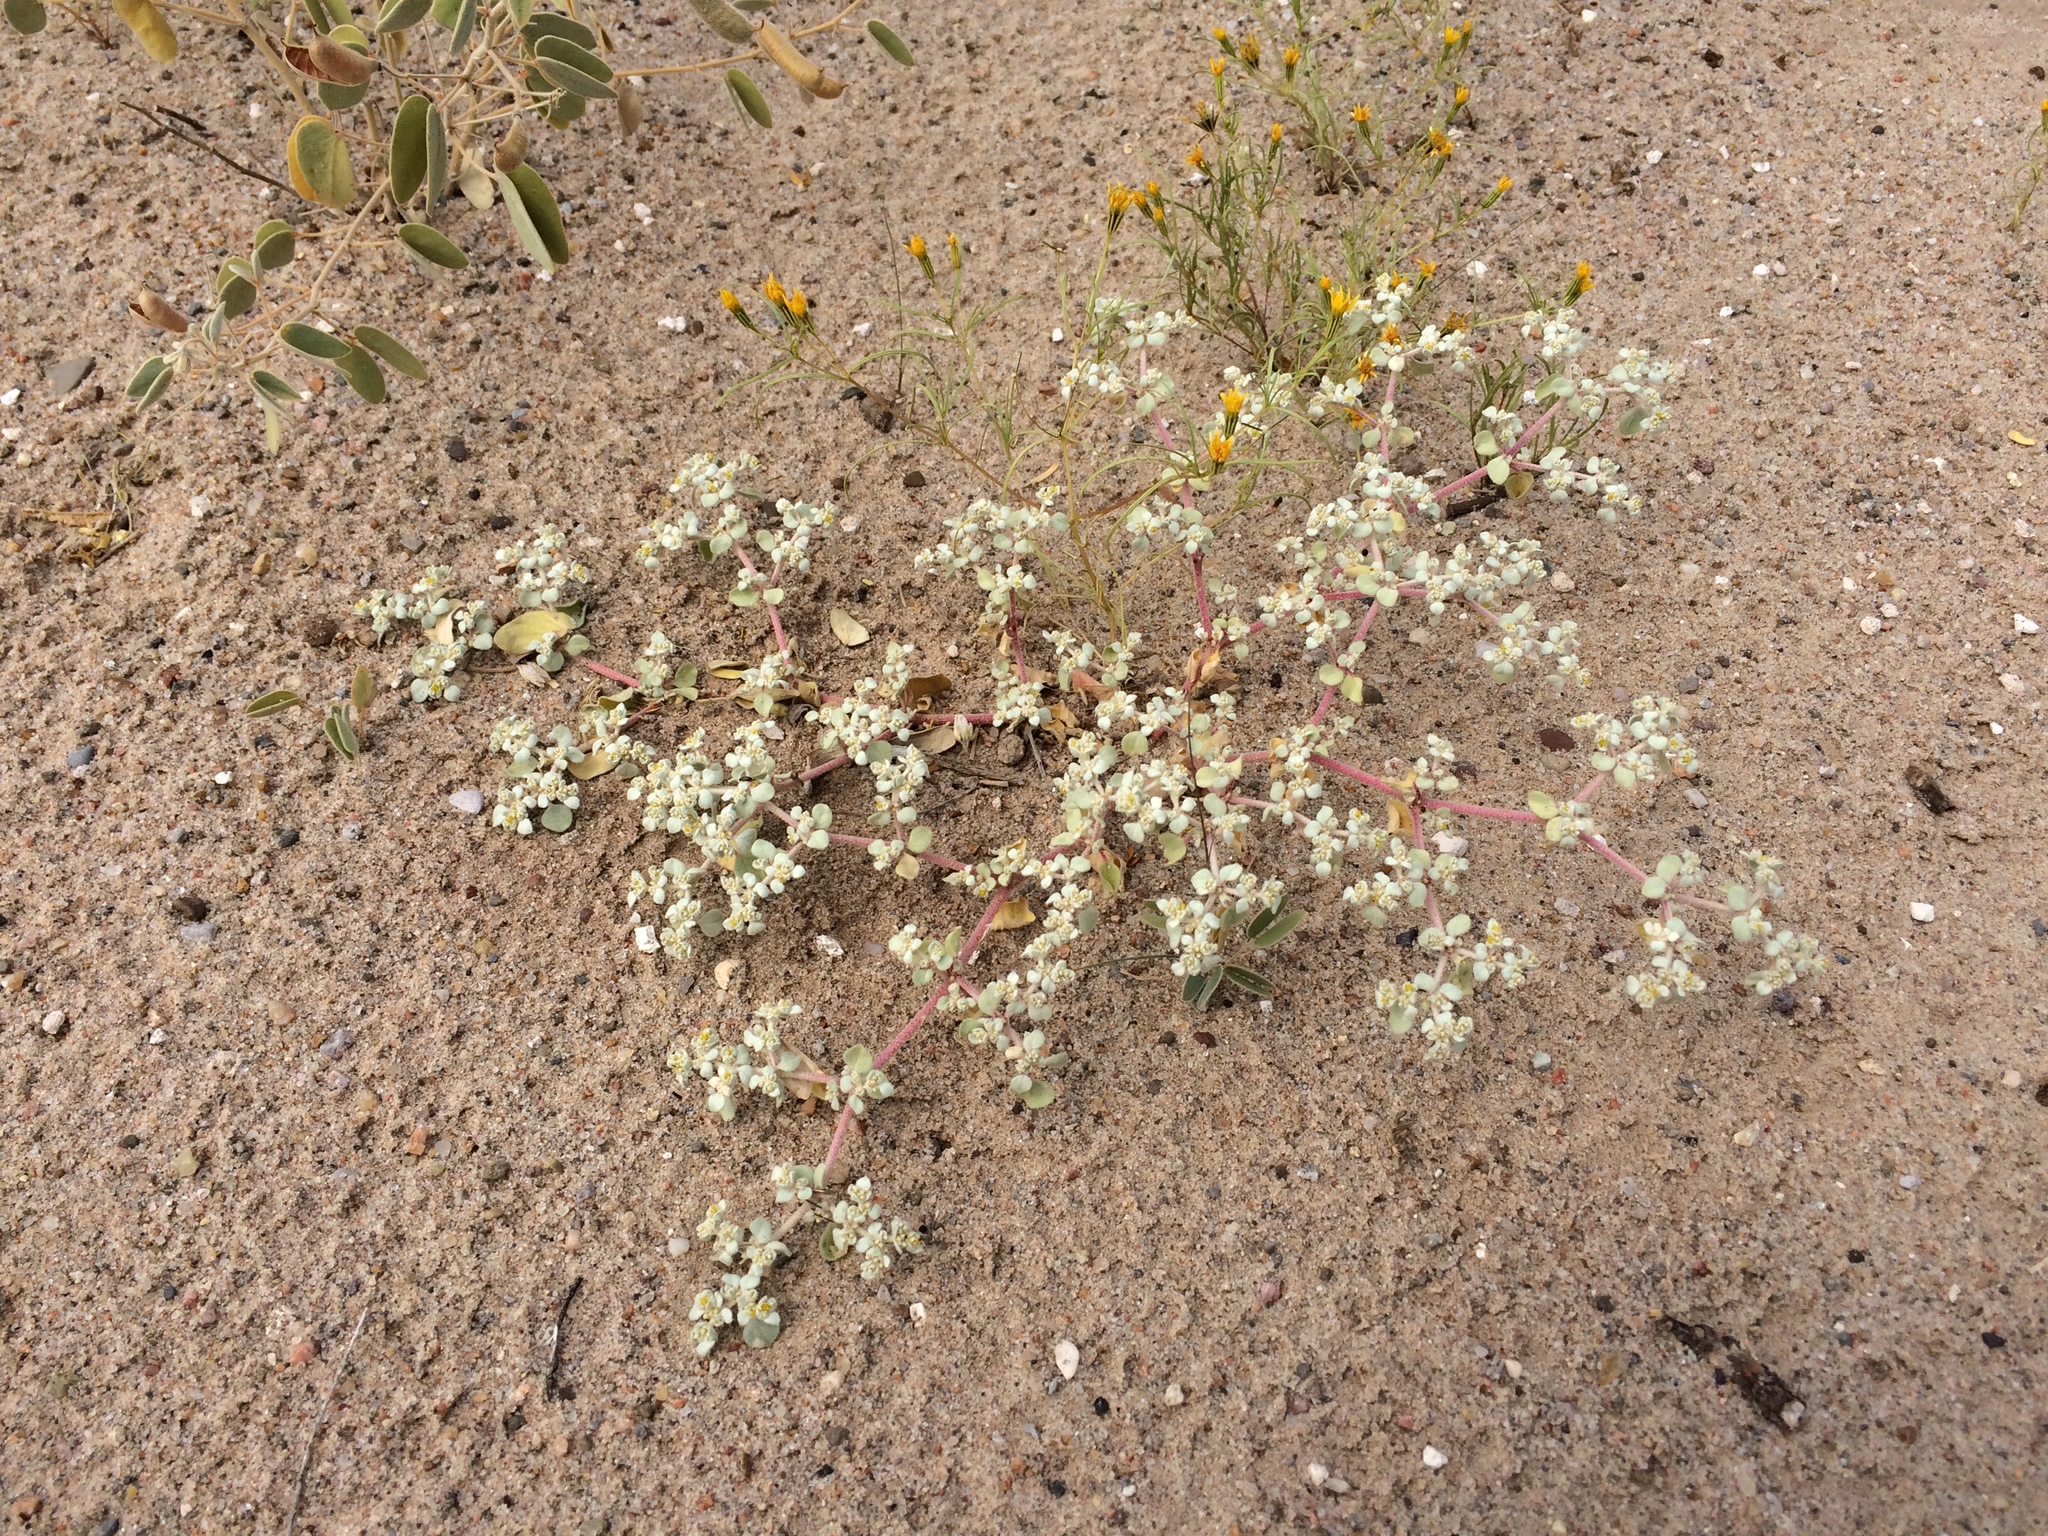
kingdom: Plantae
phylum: Tracheophyta
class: Magnoliopsida
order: Caryophyllales
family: Amaranthaceae
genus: Tidestromia
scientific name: Tidestromia lanuginosa
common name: Woolly tidestromia
